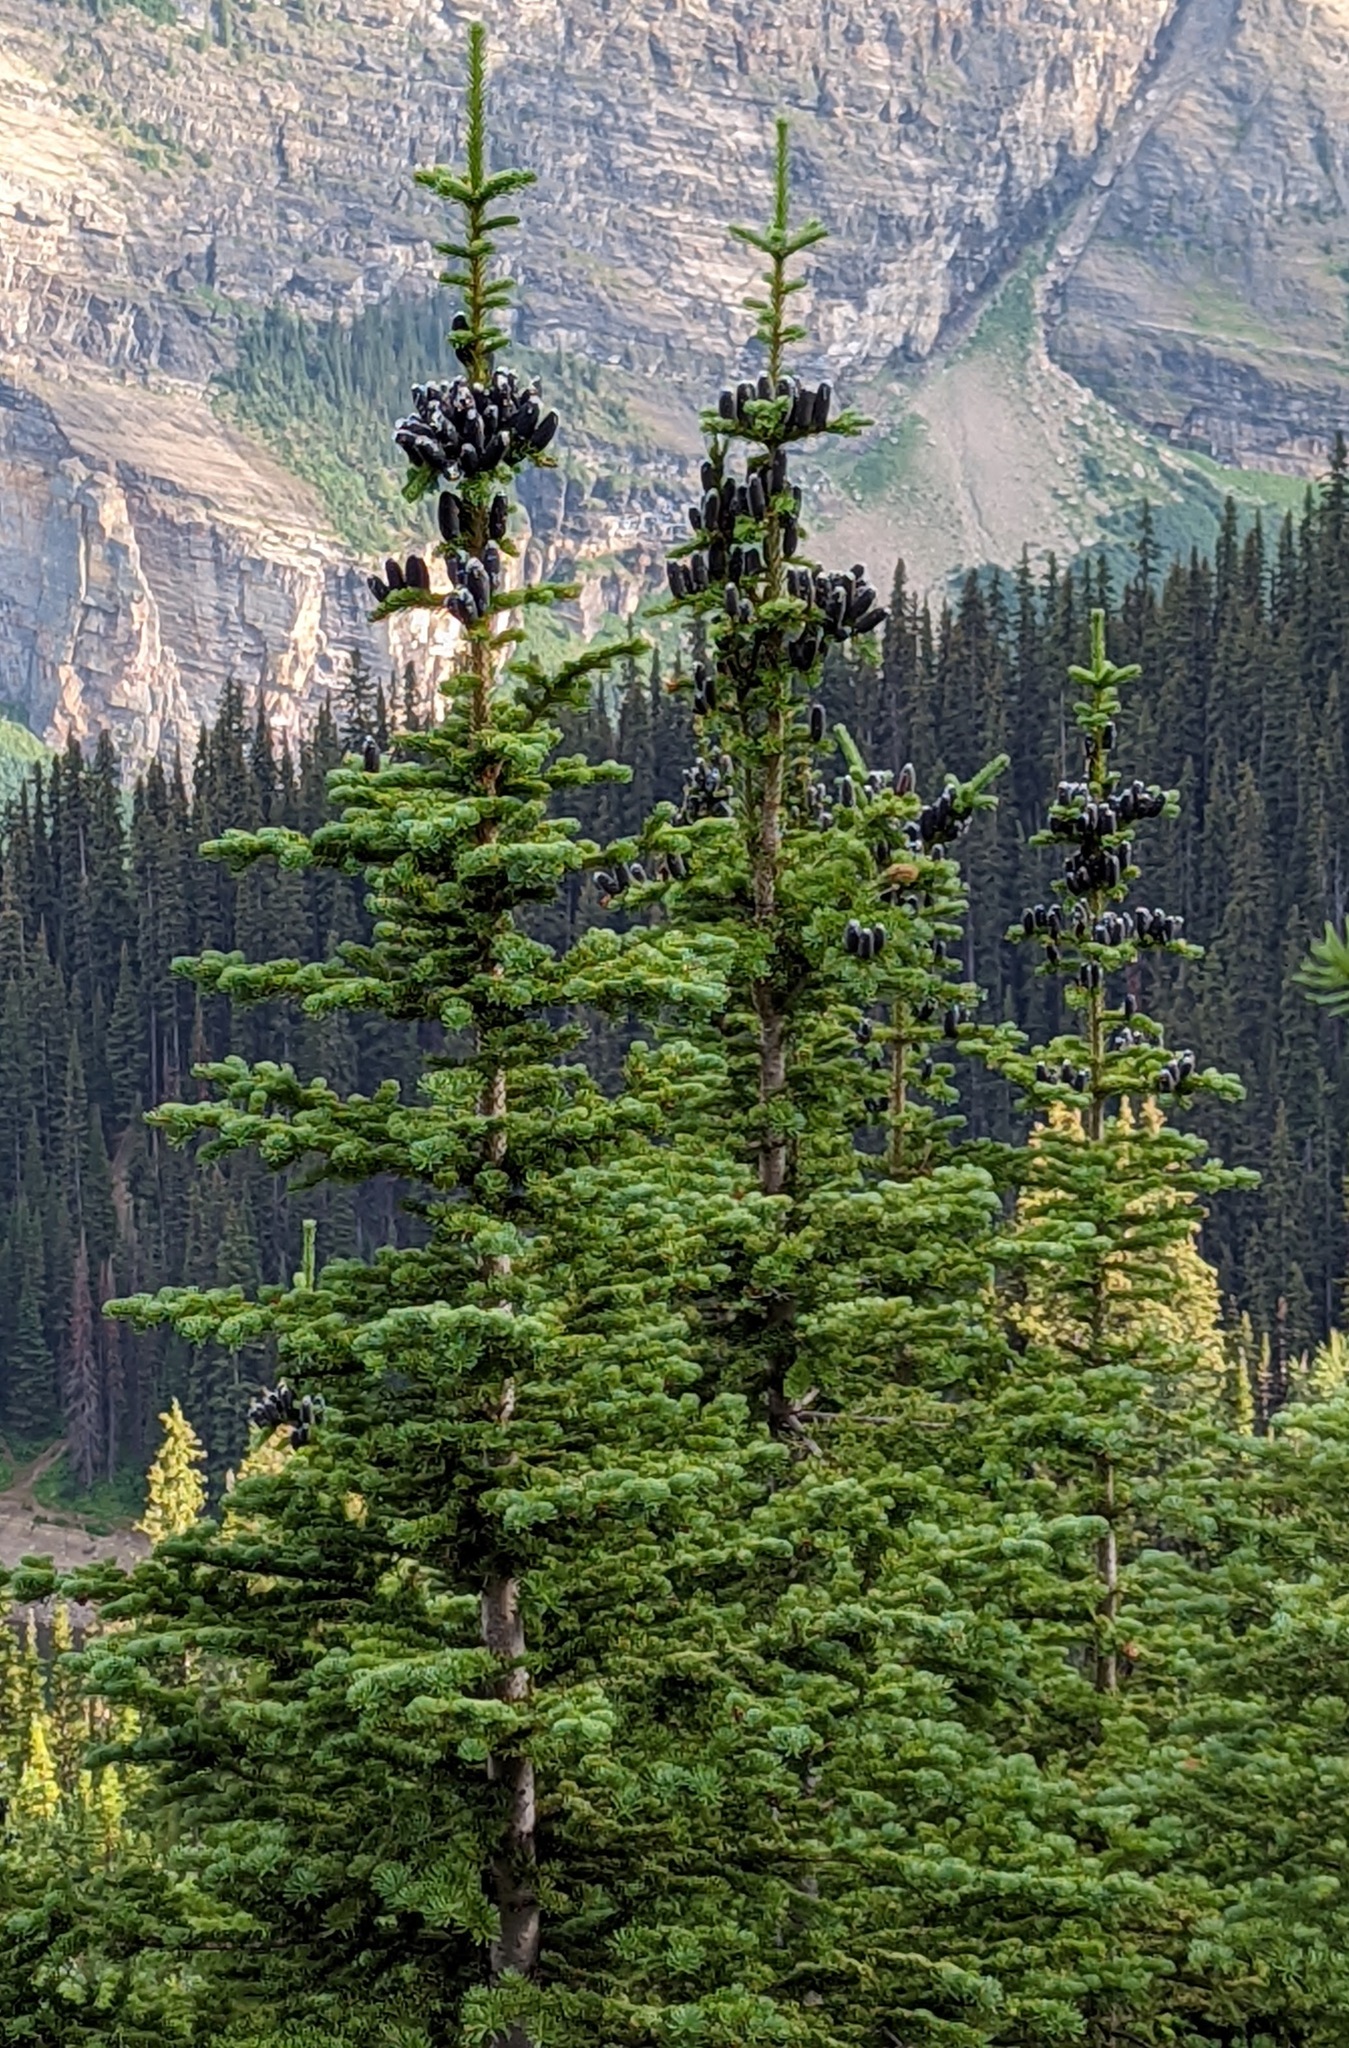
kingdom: Plantae
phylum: Tracheophyta
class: Pinopsida
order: Pinales
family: Pinaceae
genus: Abies
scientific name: Abies lasiocarpa
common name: Subalpine fir
